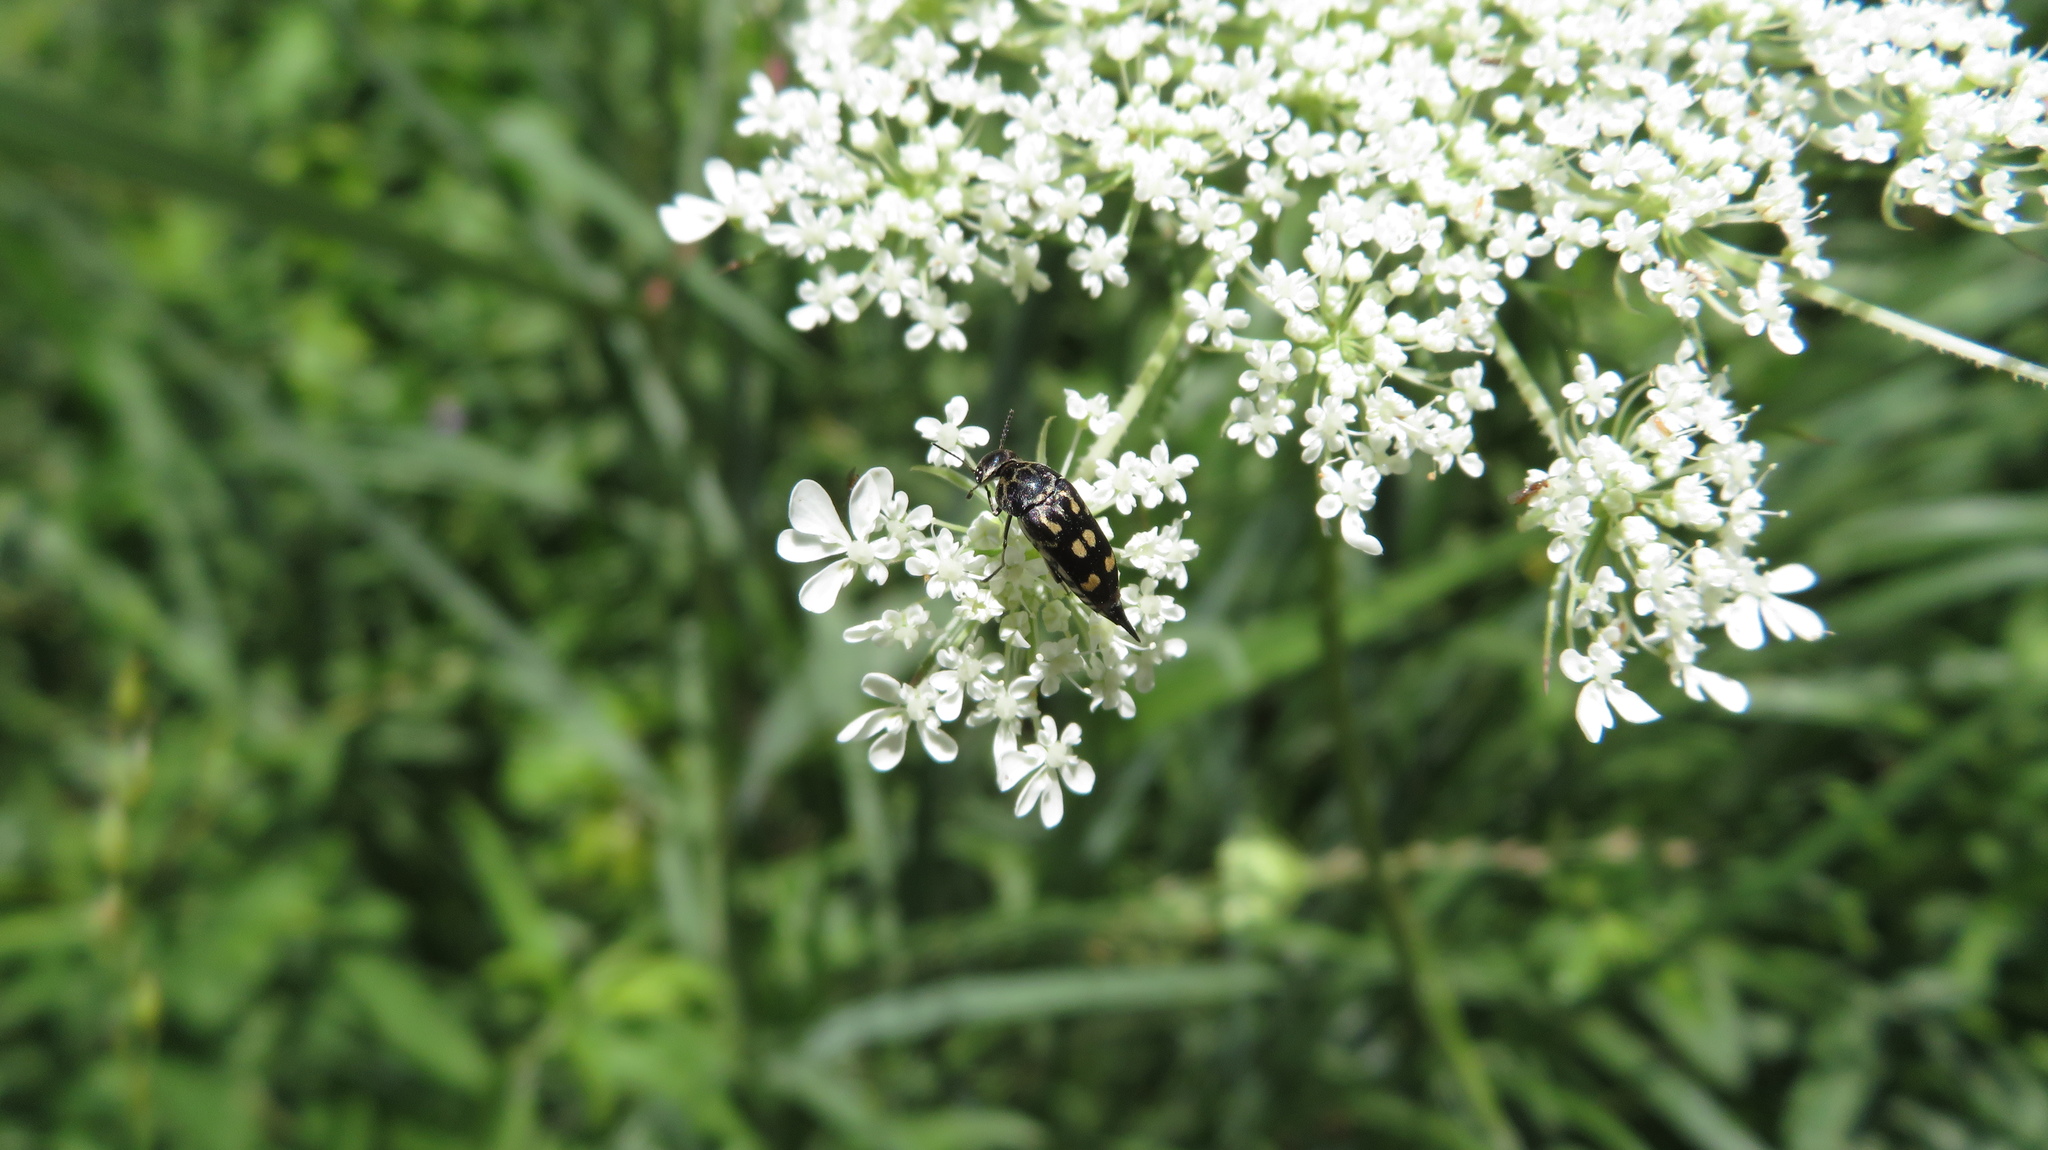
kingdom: Animalia
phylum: Arthropoda
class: Insecta
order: Coleoptera
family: Mordellidae
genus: Hoshihananomia
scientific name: Hoshihananomia octopunctata
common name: Eight-spotted tumbling flower beetle
